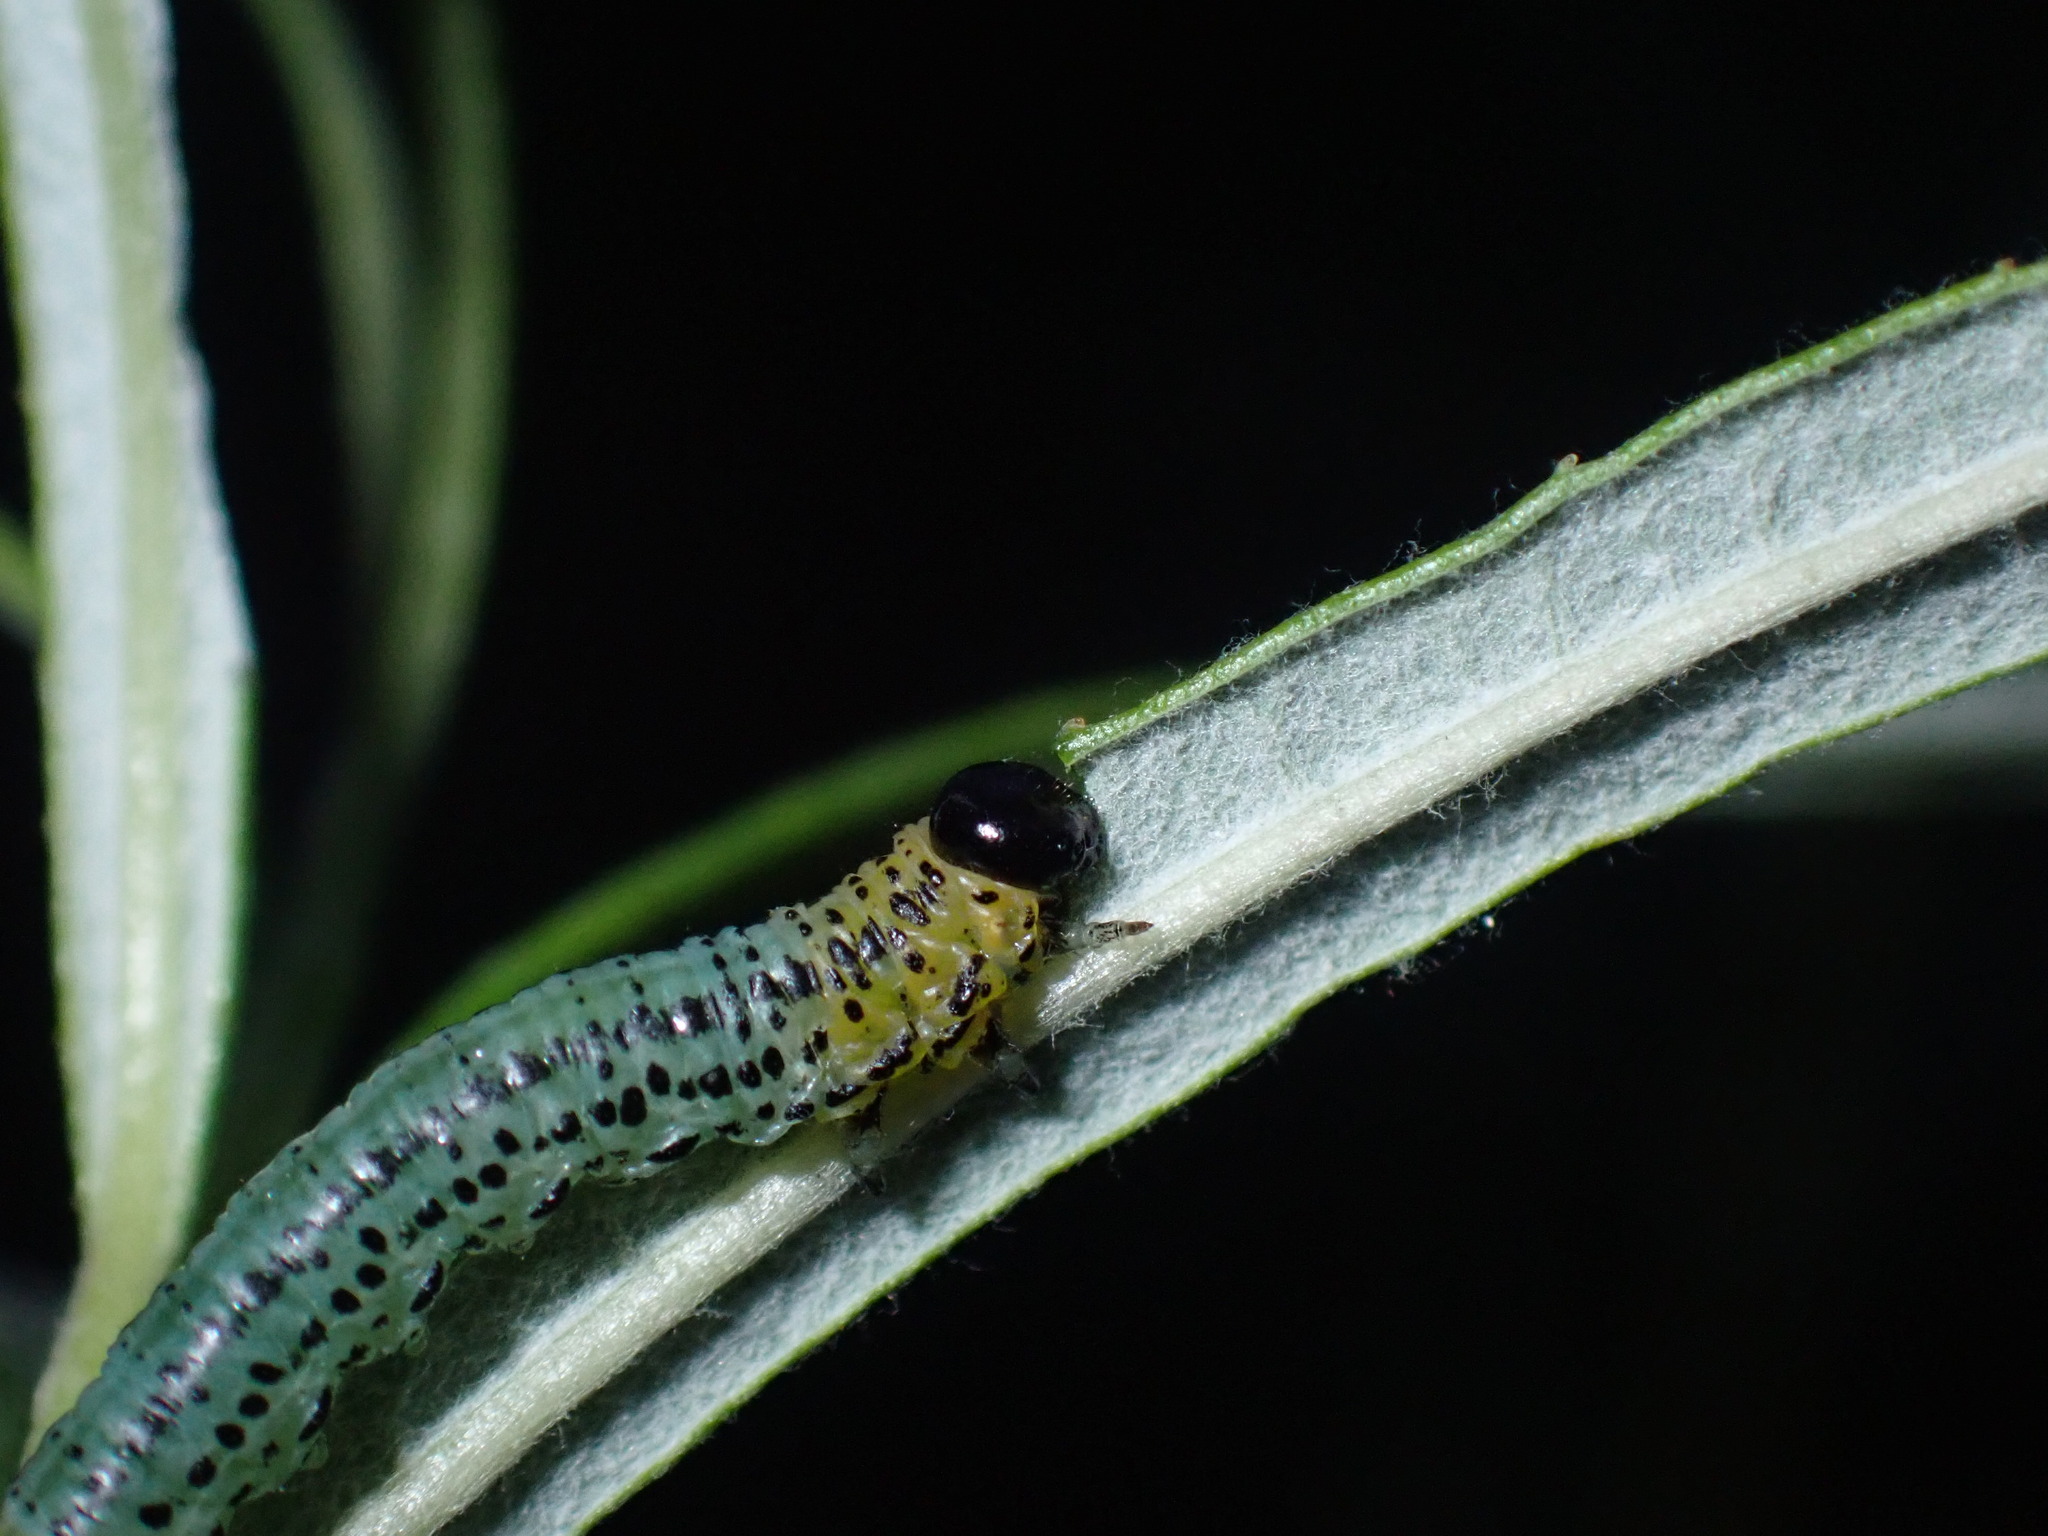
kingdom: Animalia
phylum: Arthropoda
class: Insecta
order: Hymenoptera
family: Tenthredinidae
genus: Nematus
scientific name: Nematus miliaris
